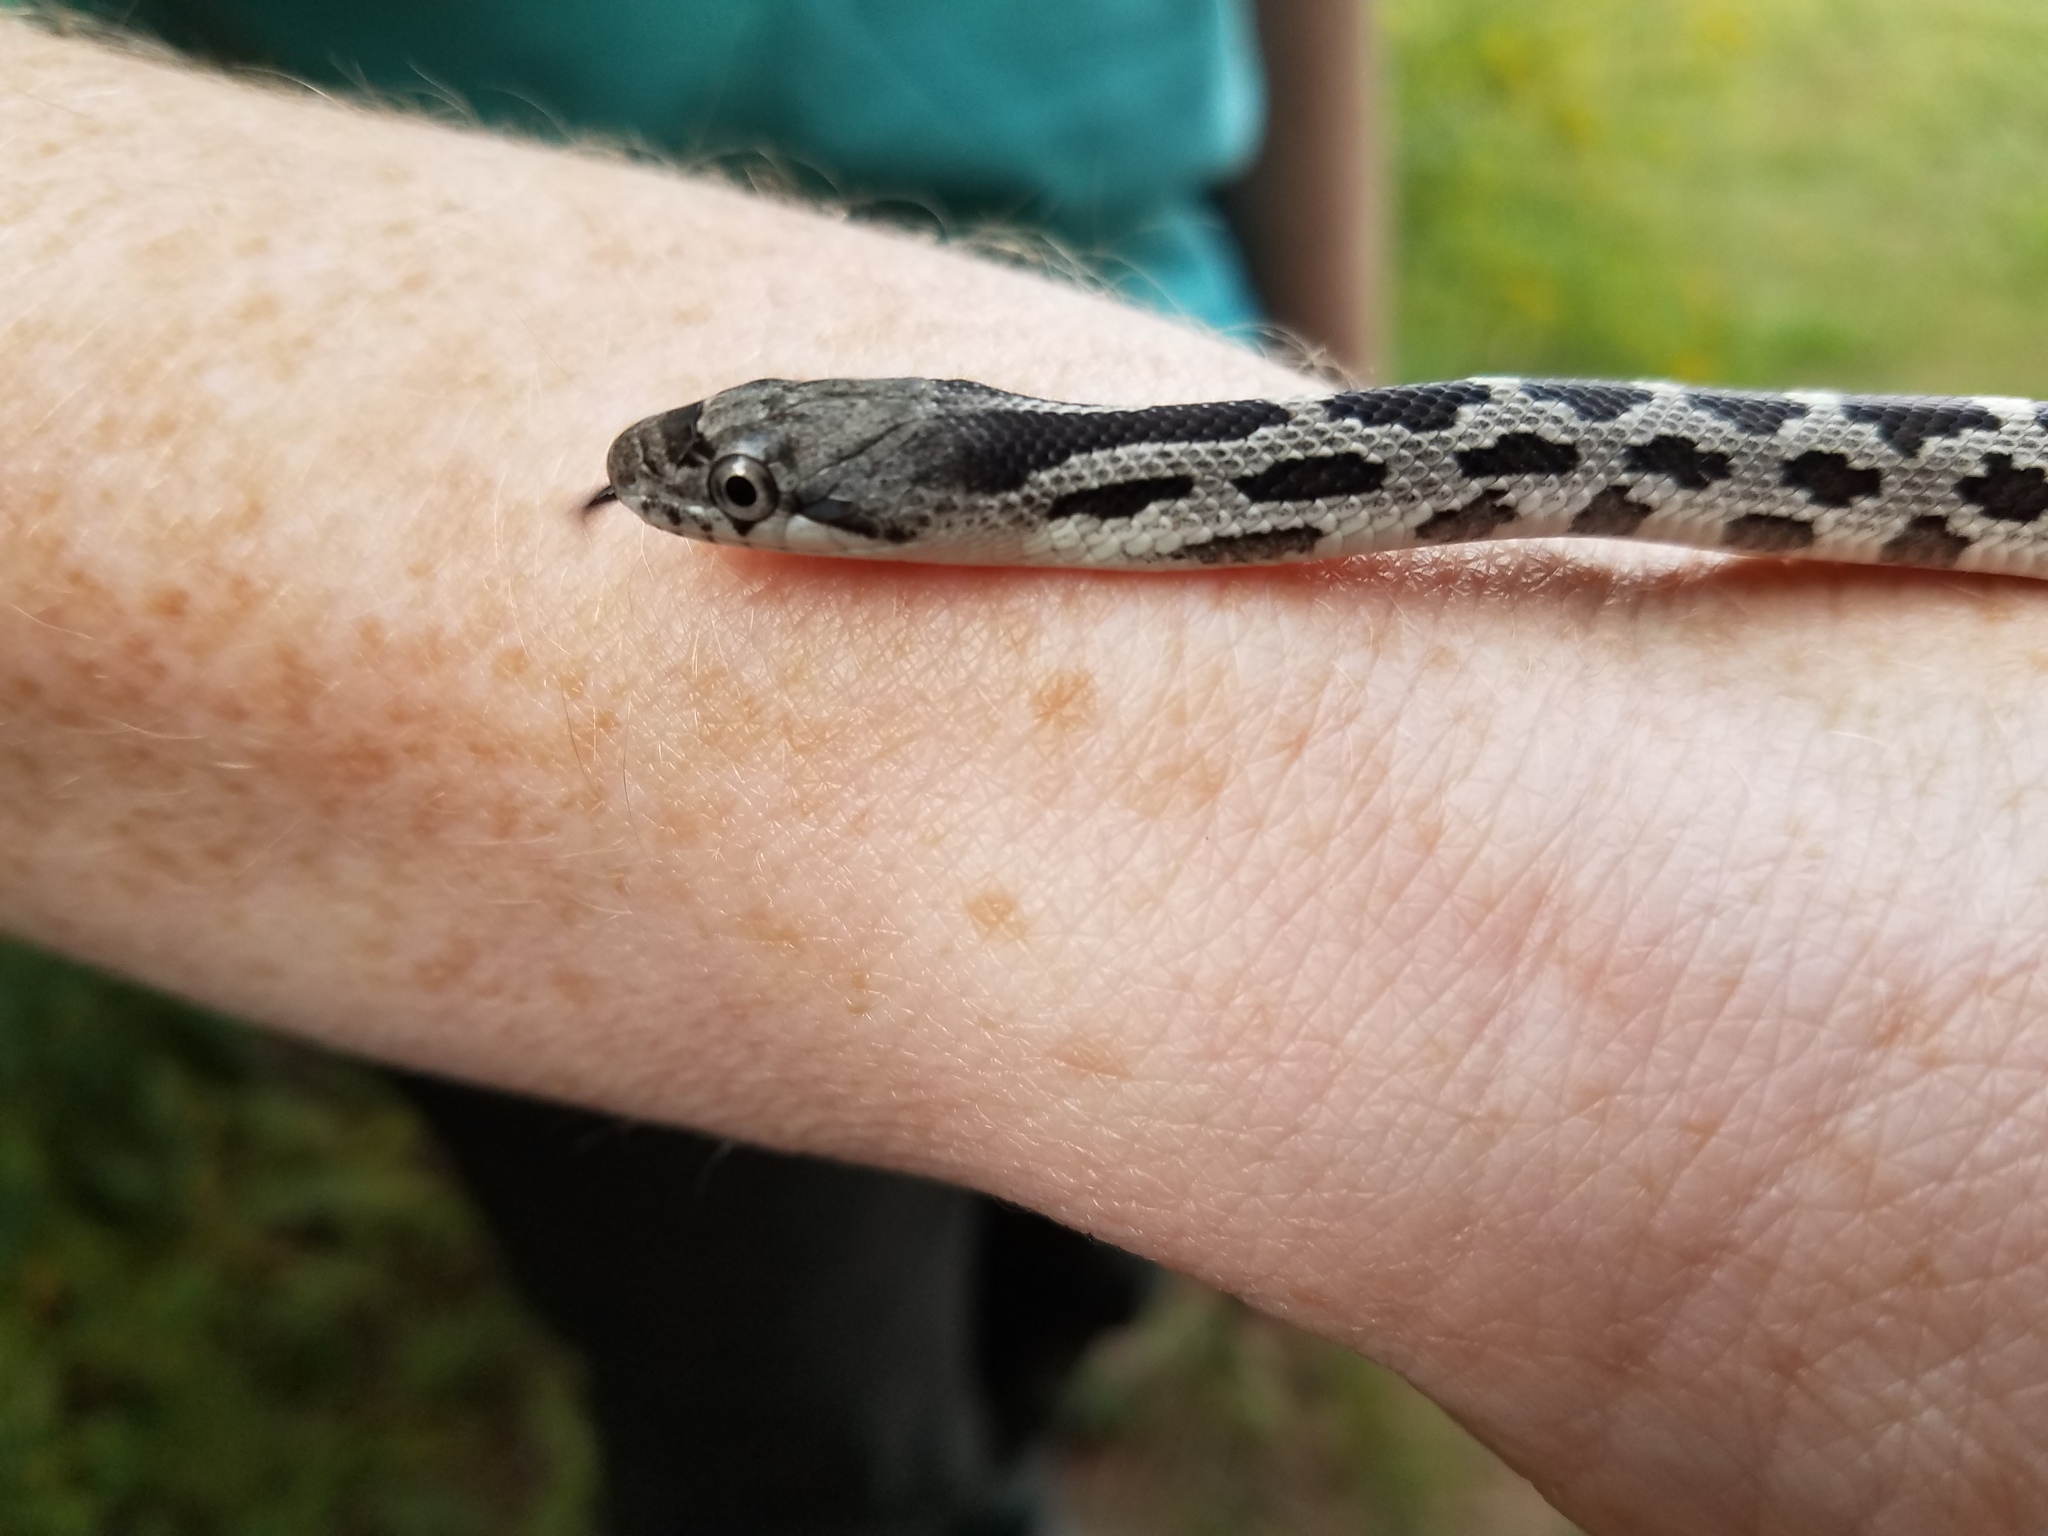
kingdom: Animalia
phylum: Chordata
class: Squamata
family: Colubridae
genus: Pantherophis
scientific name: Pantherophis alleghaniensis
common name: Eastern rat snake
